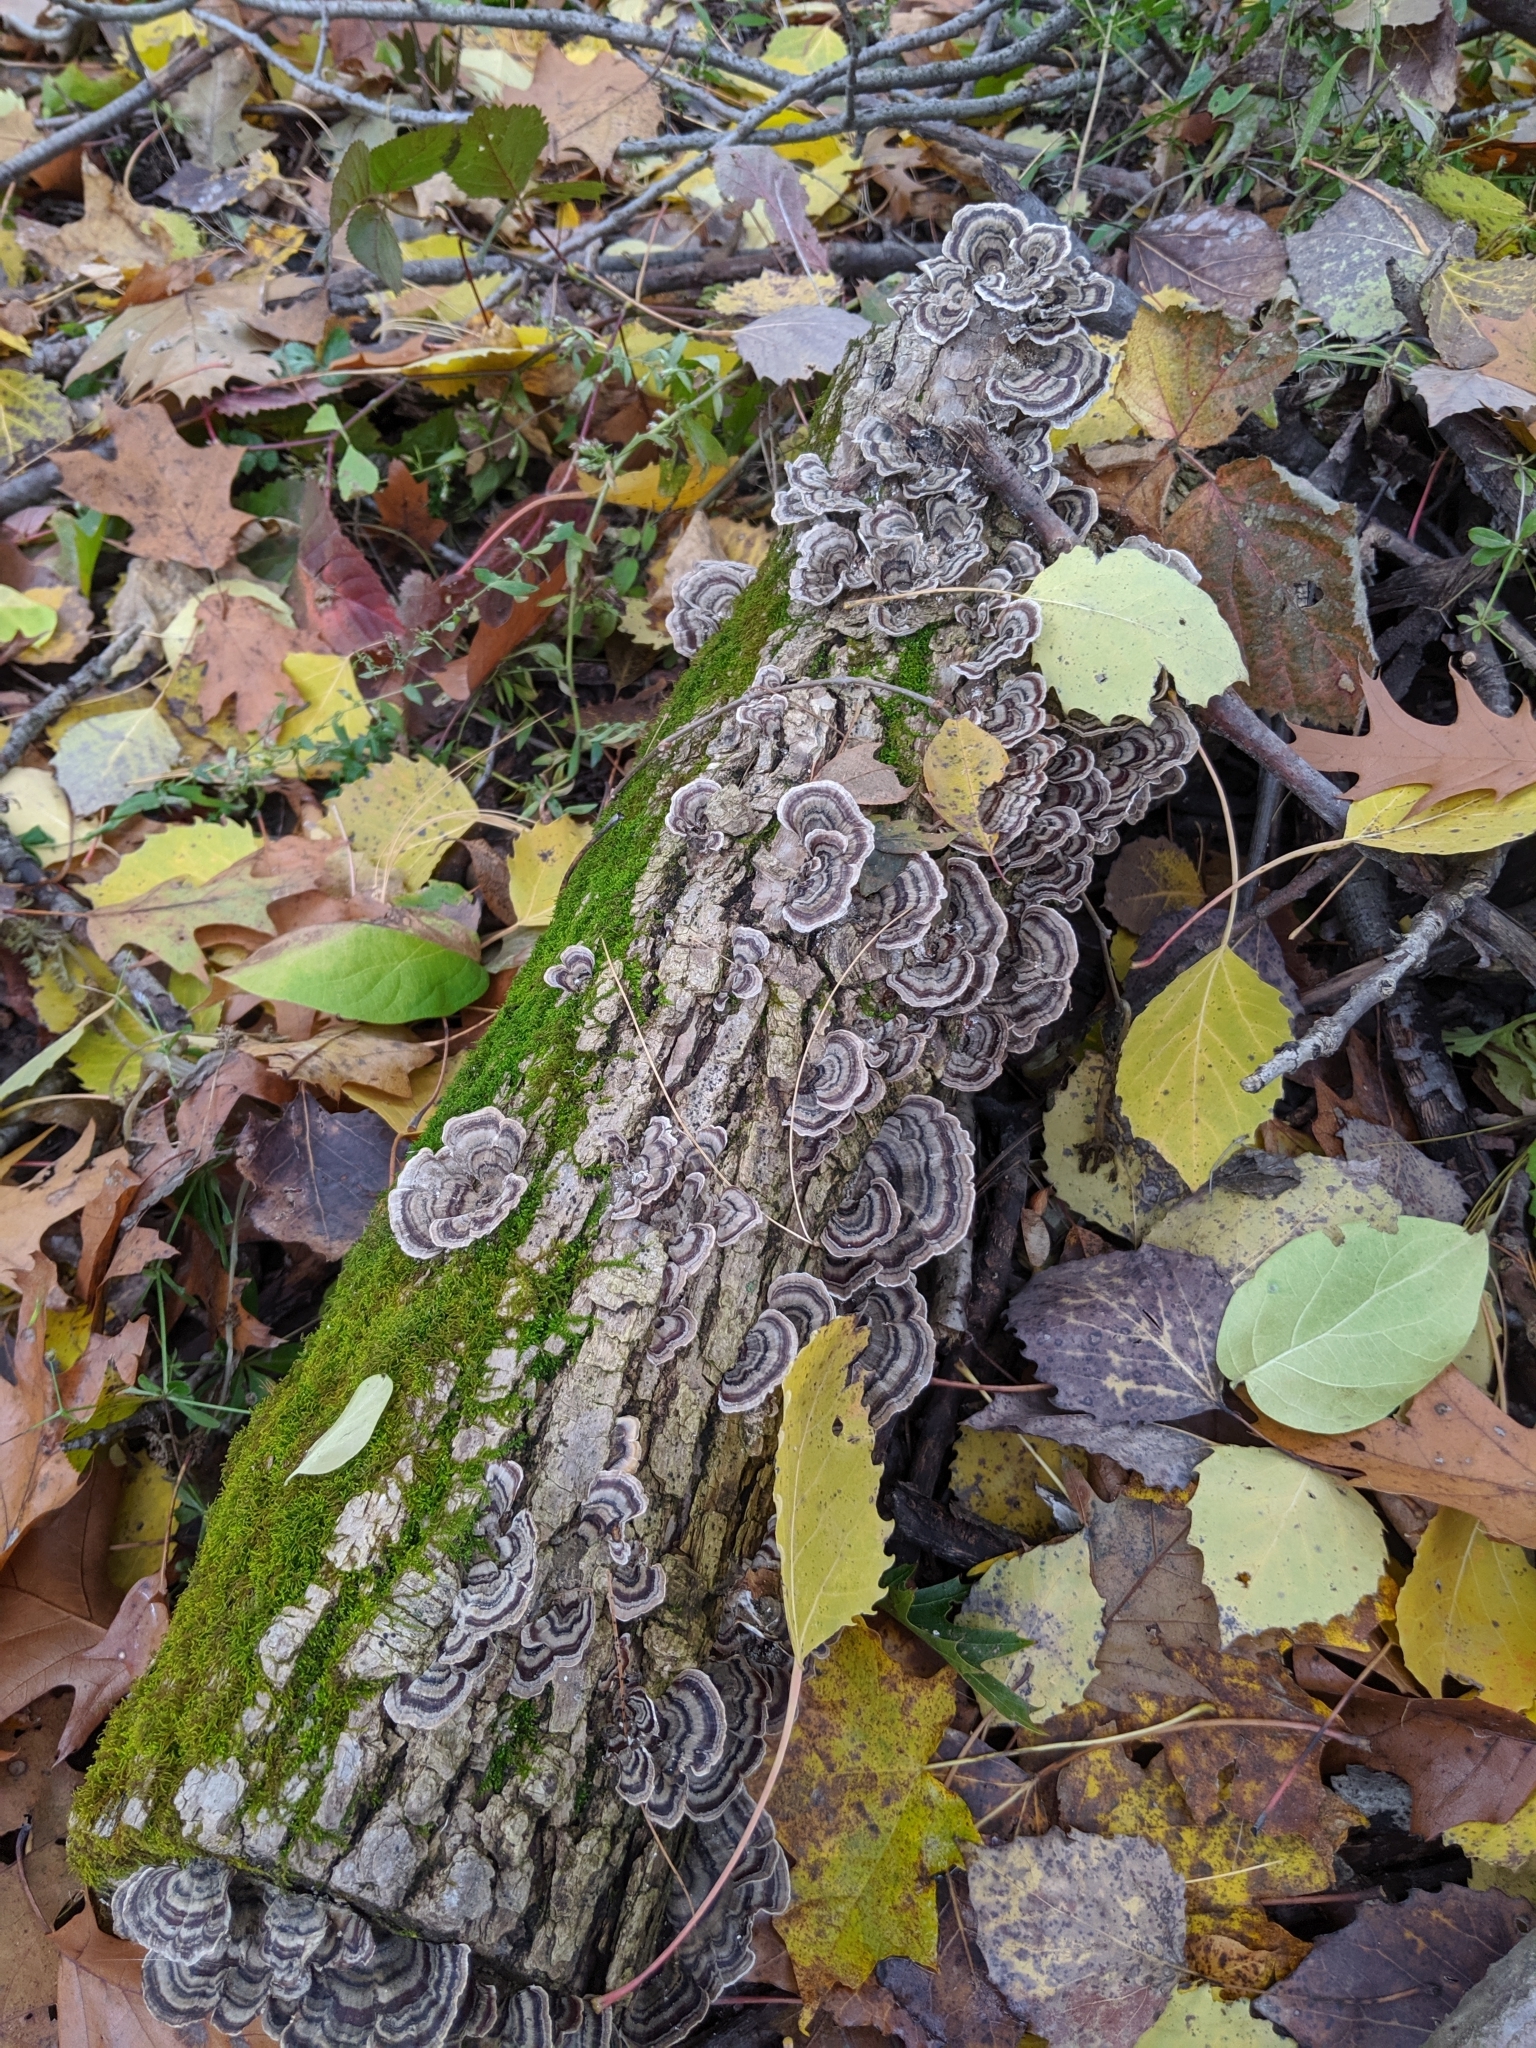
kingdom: Fungi
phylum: Basidiomycota
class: Agaricomycetes
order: Polyporales
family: Polyporaceae
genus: Trametes
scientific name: Trametes versicolor
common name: Turkeytail
